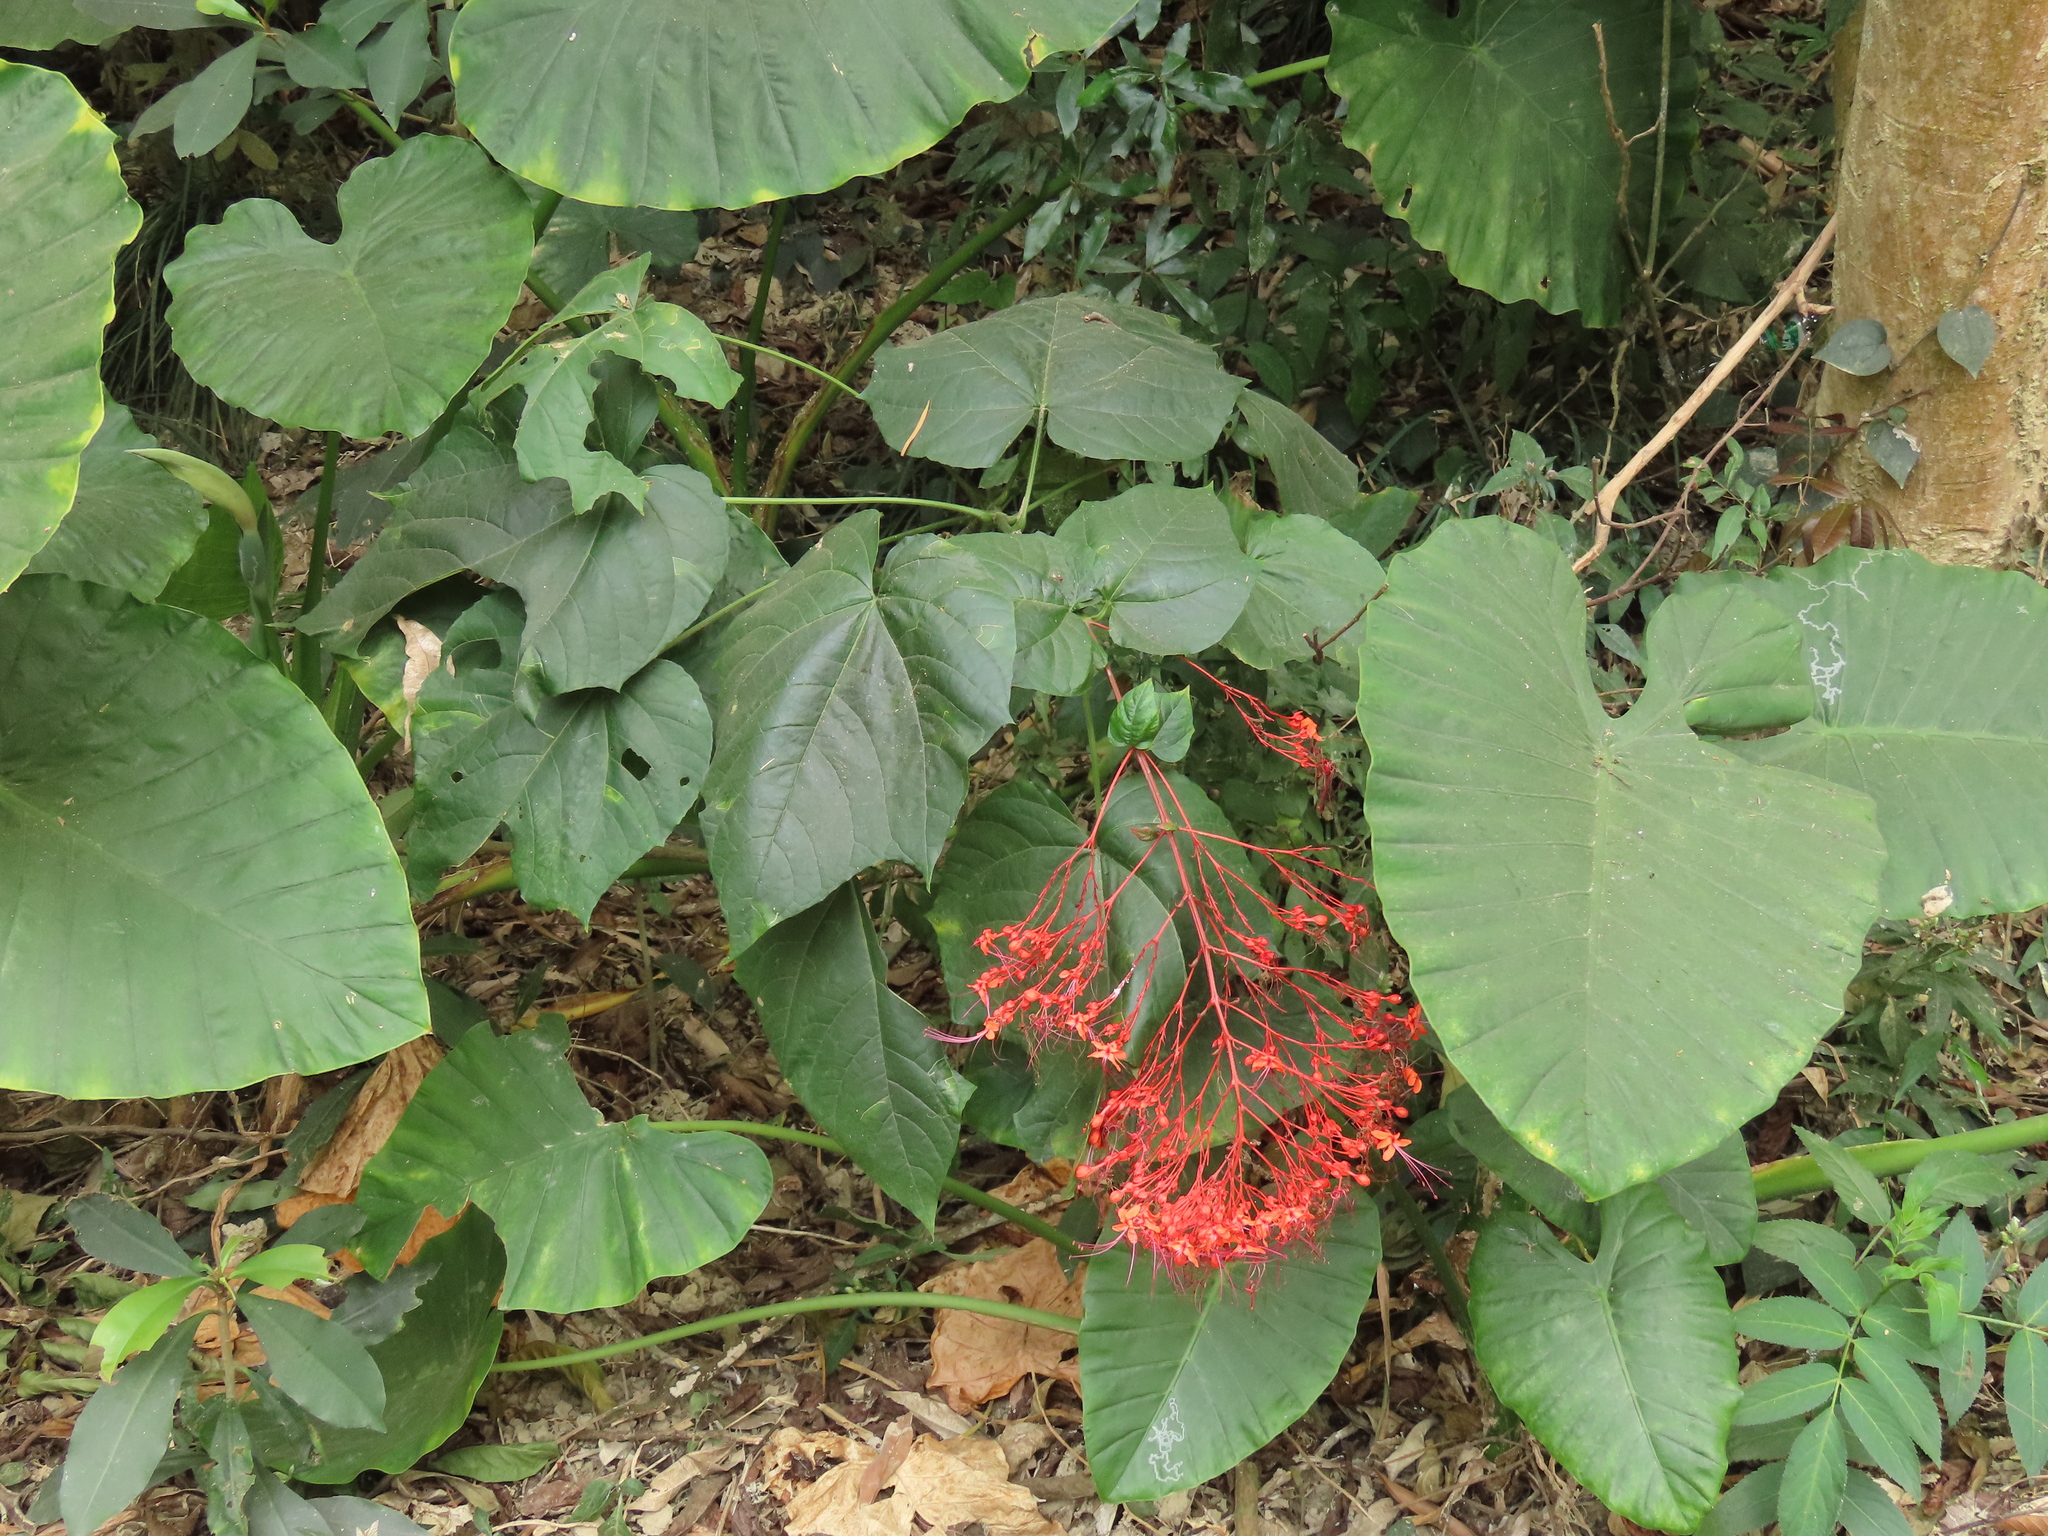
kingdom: Plantae
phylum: Tracheophyta
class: Magnoliopsida
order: Lamiales
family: Lamiaceae
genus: Clerodendrum
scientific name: Clerodendrum japonicum
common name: Japanese glorybower
